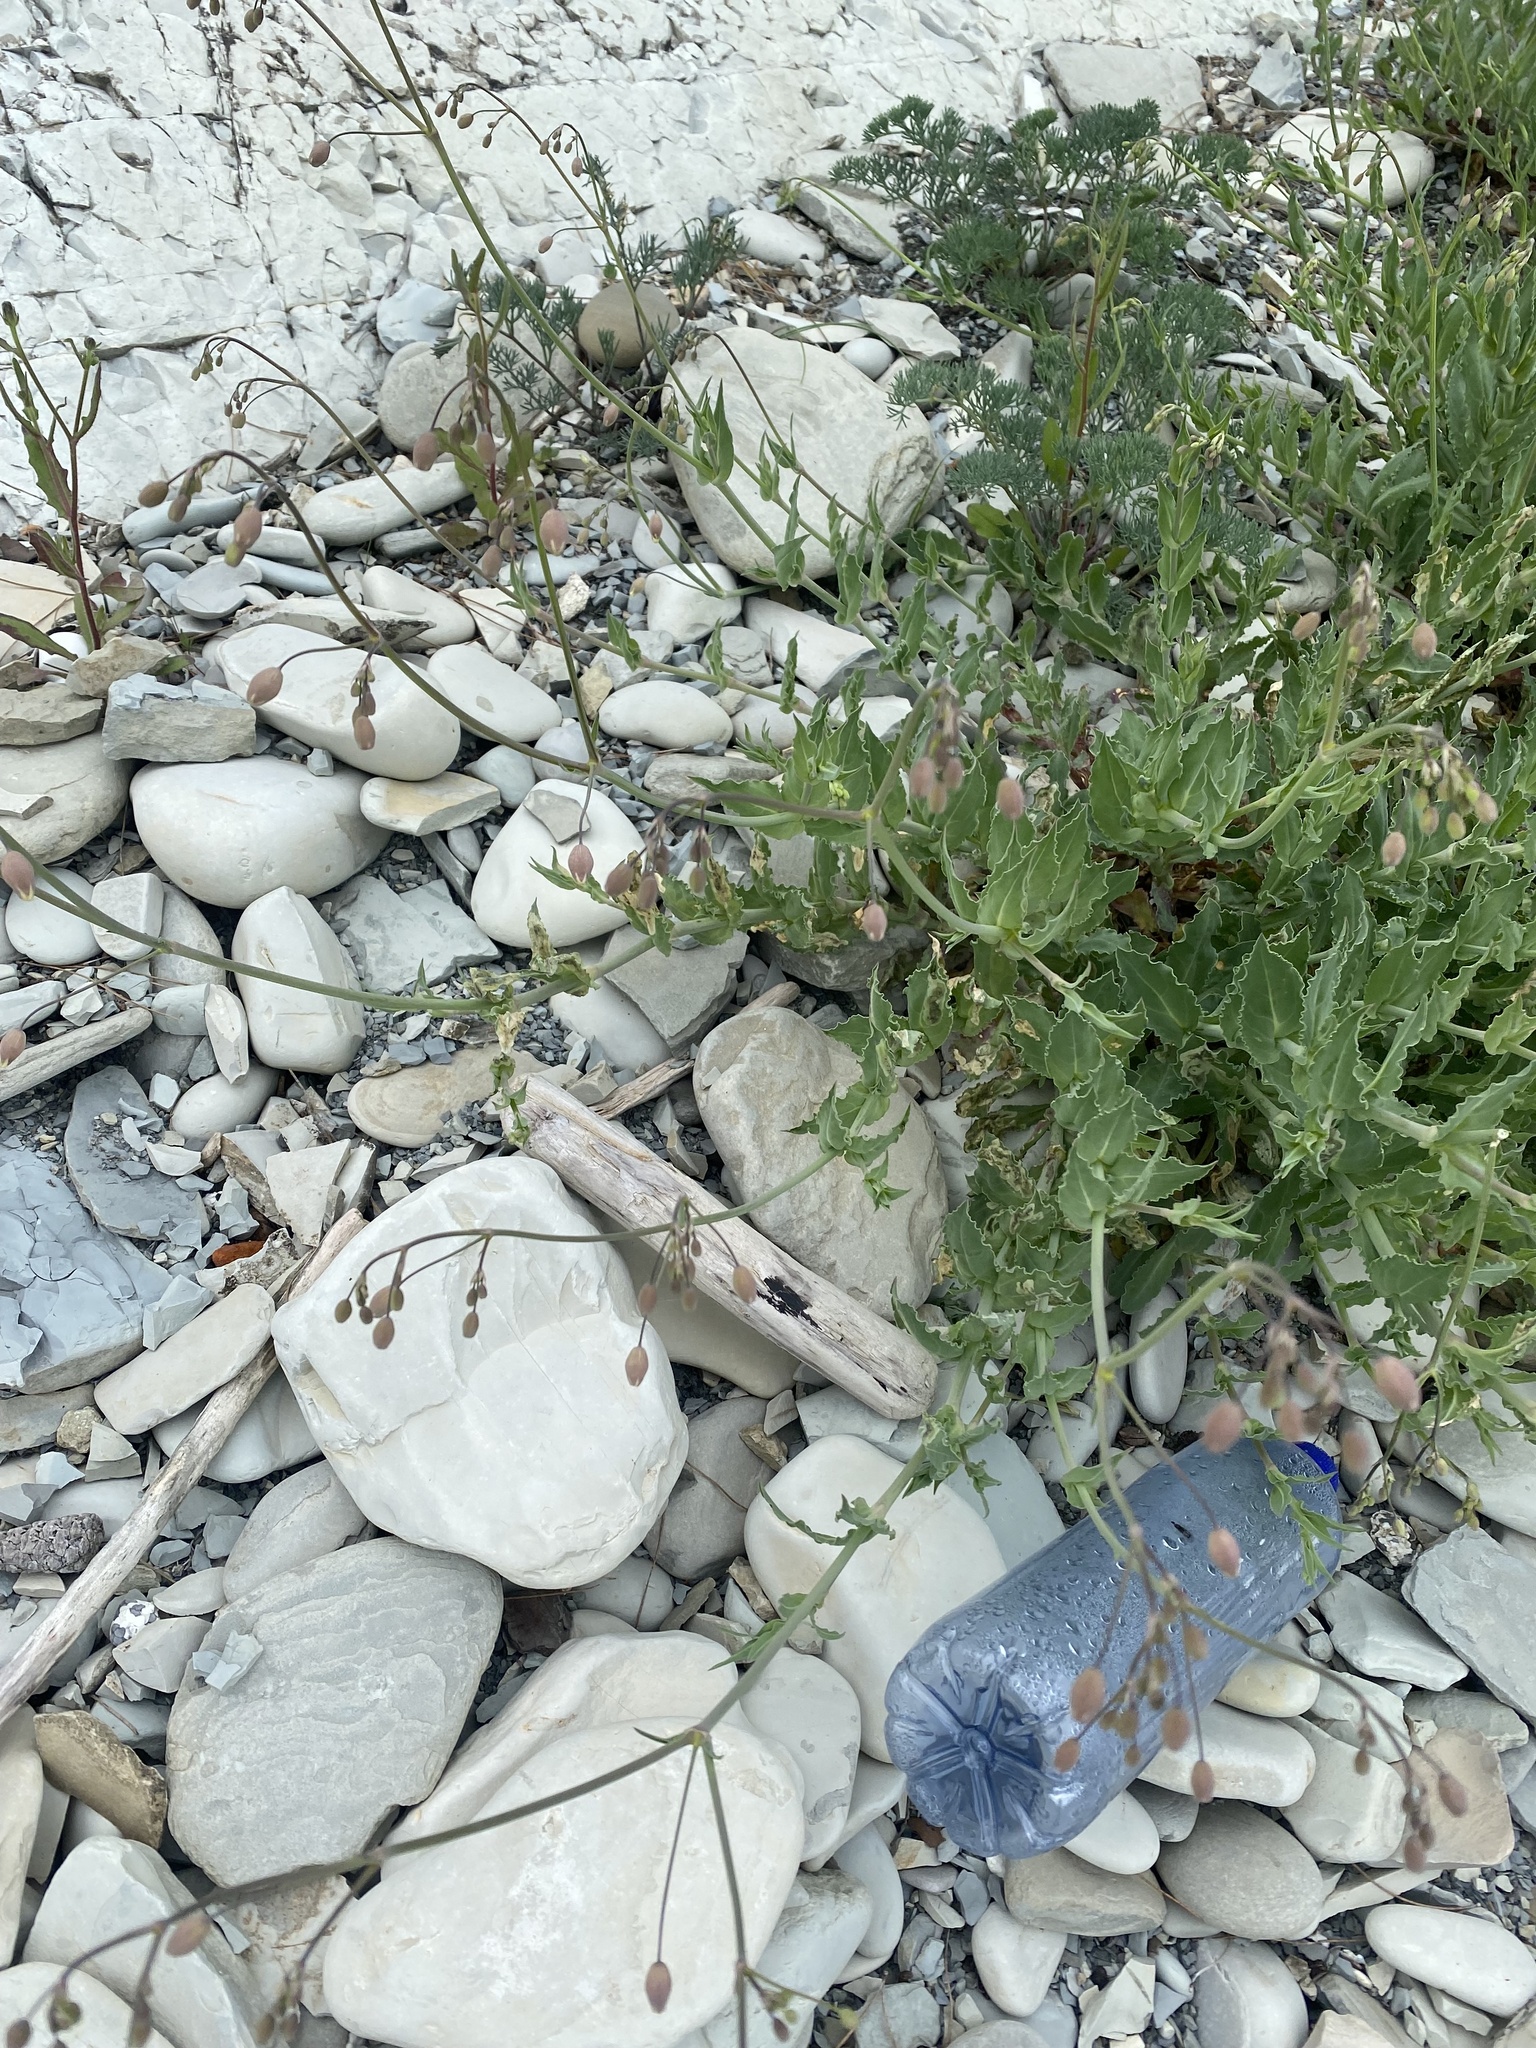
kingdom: Plantae
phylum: Tracheophyta
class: Magnoliopsida
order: Caryophyllales
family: Caryophyllaceae
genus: Silene
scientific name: Silene crispata
